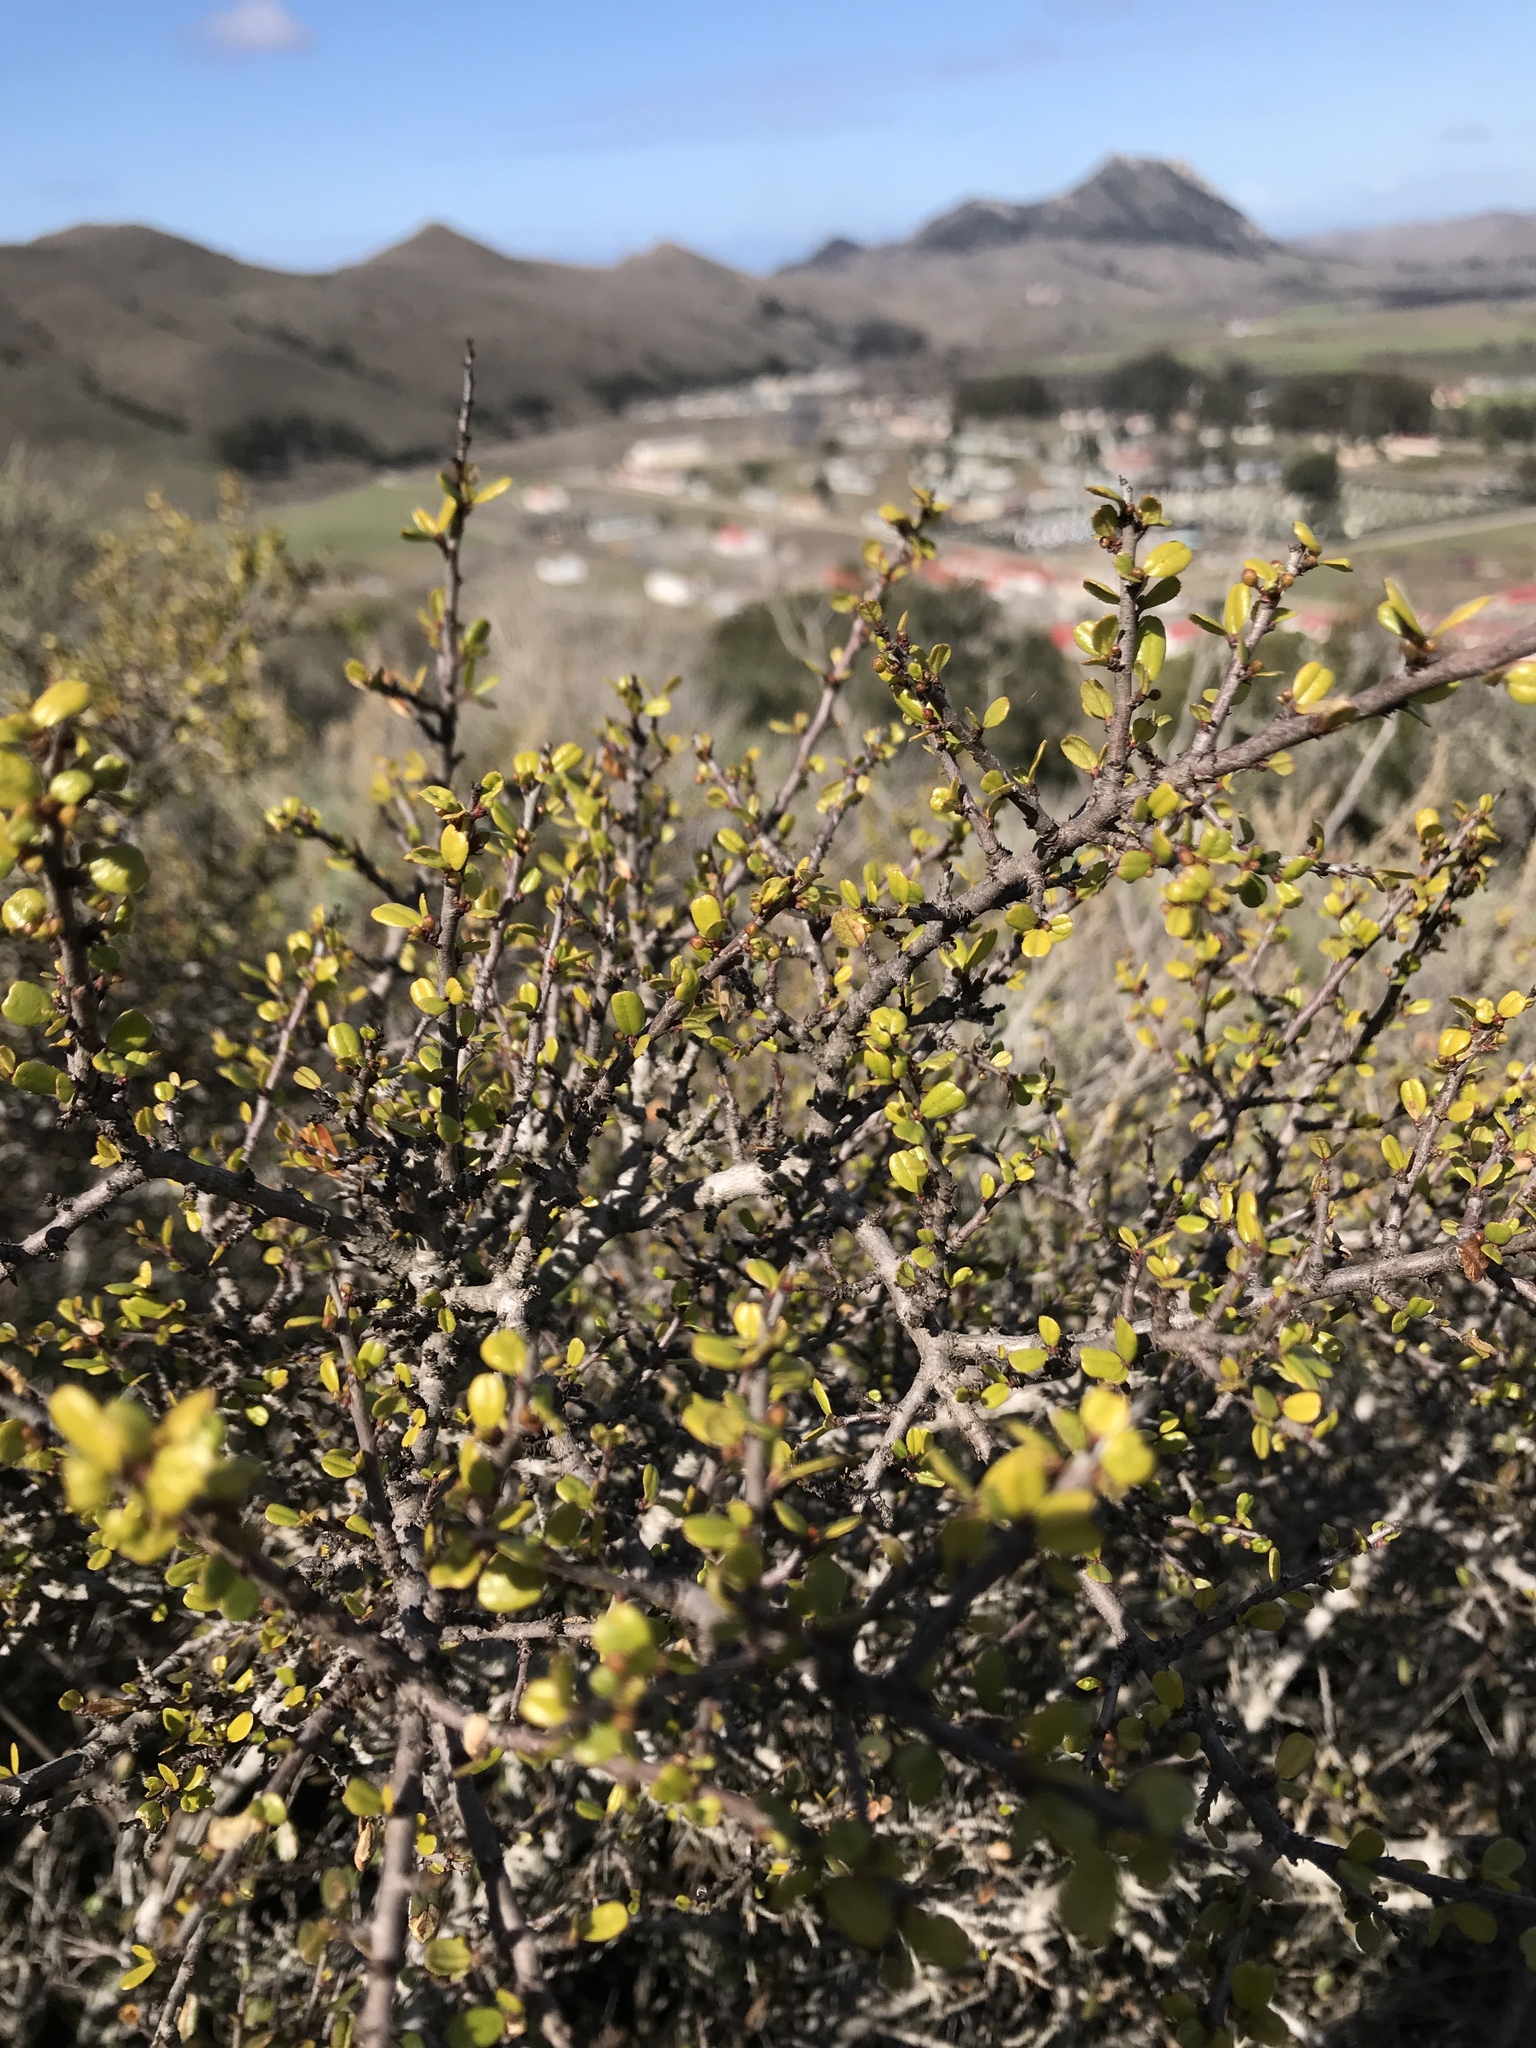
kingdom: Plantae
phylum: Tracheophyta
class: Magnoliopsida
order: Rosales
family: Rhamnaceae
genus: Endotropis
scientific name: Endotropis crocea
